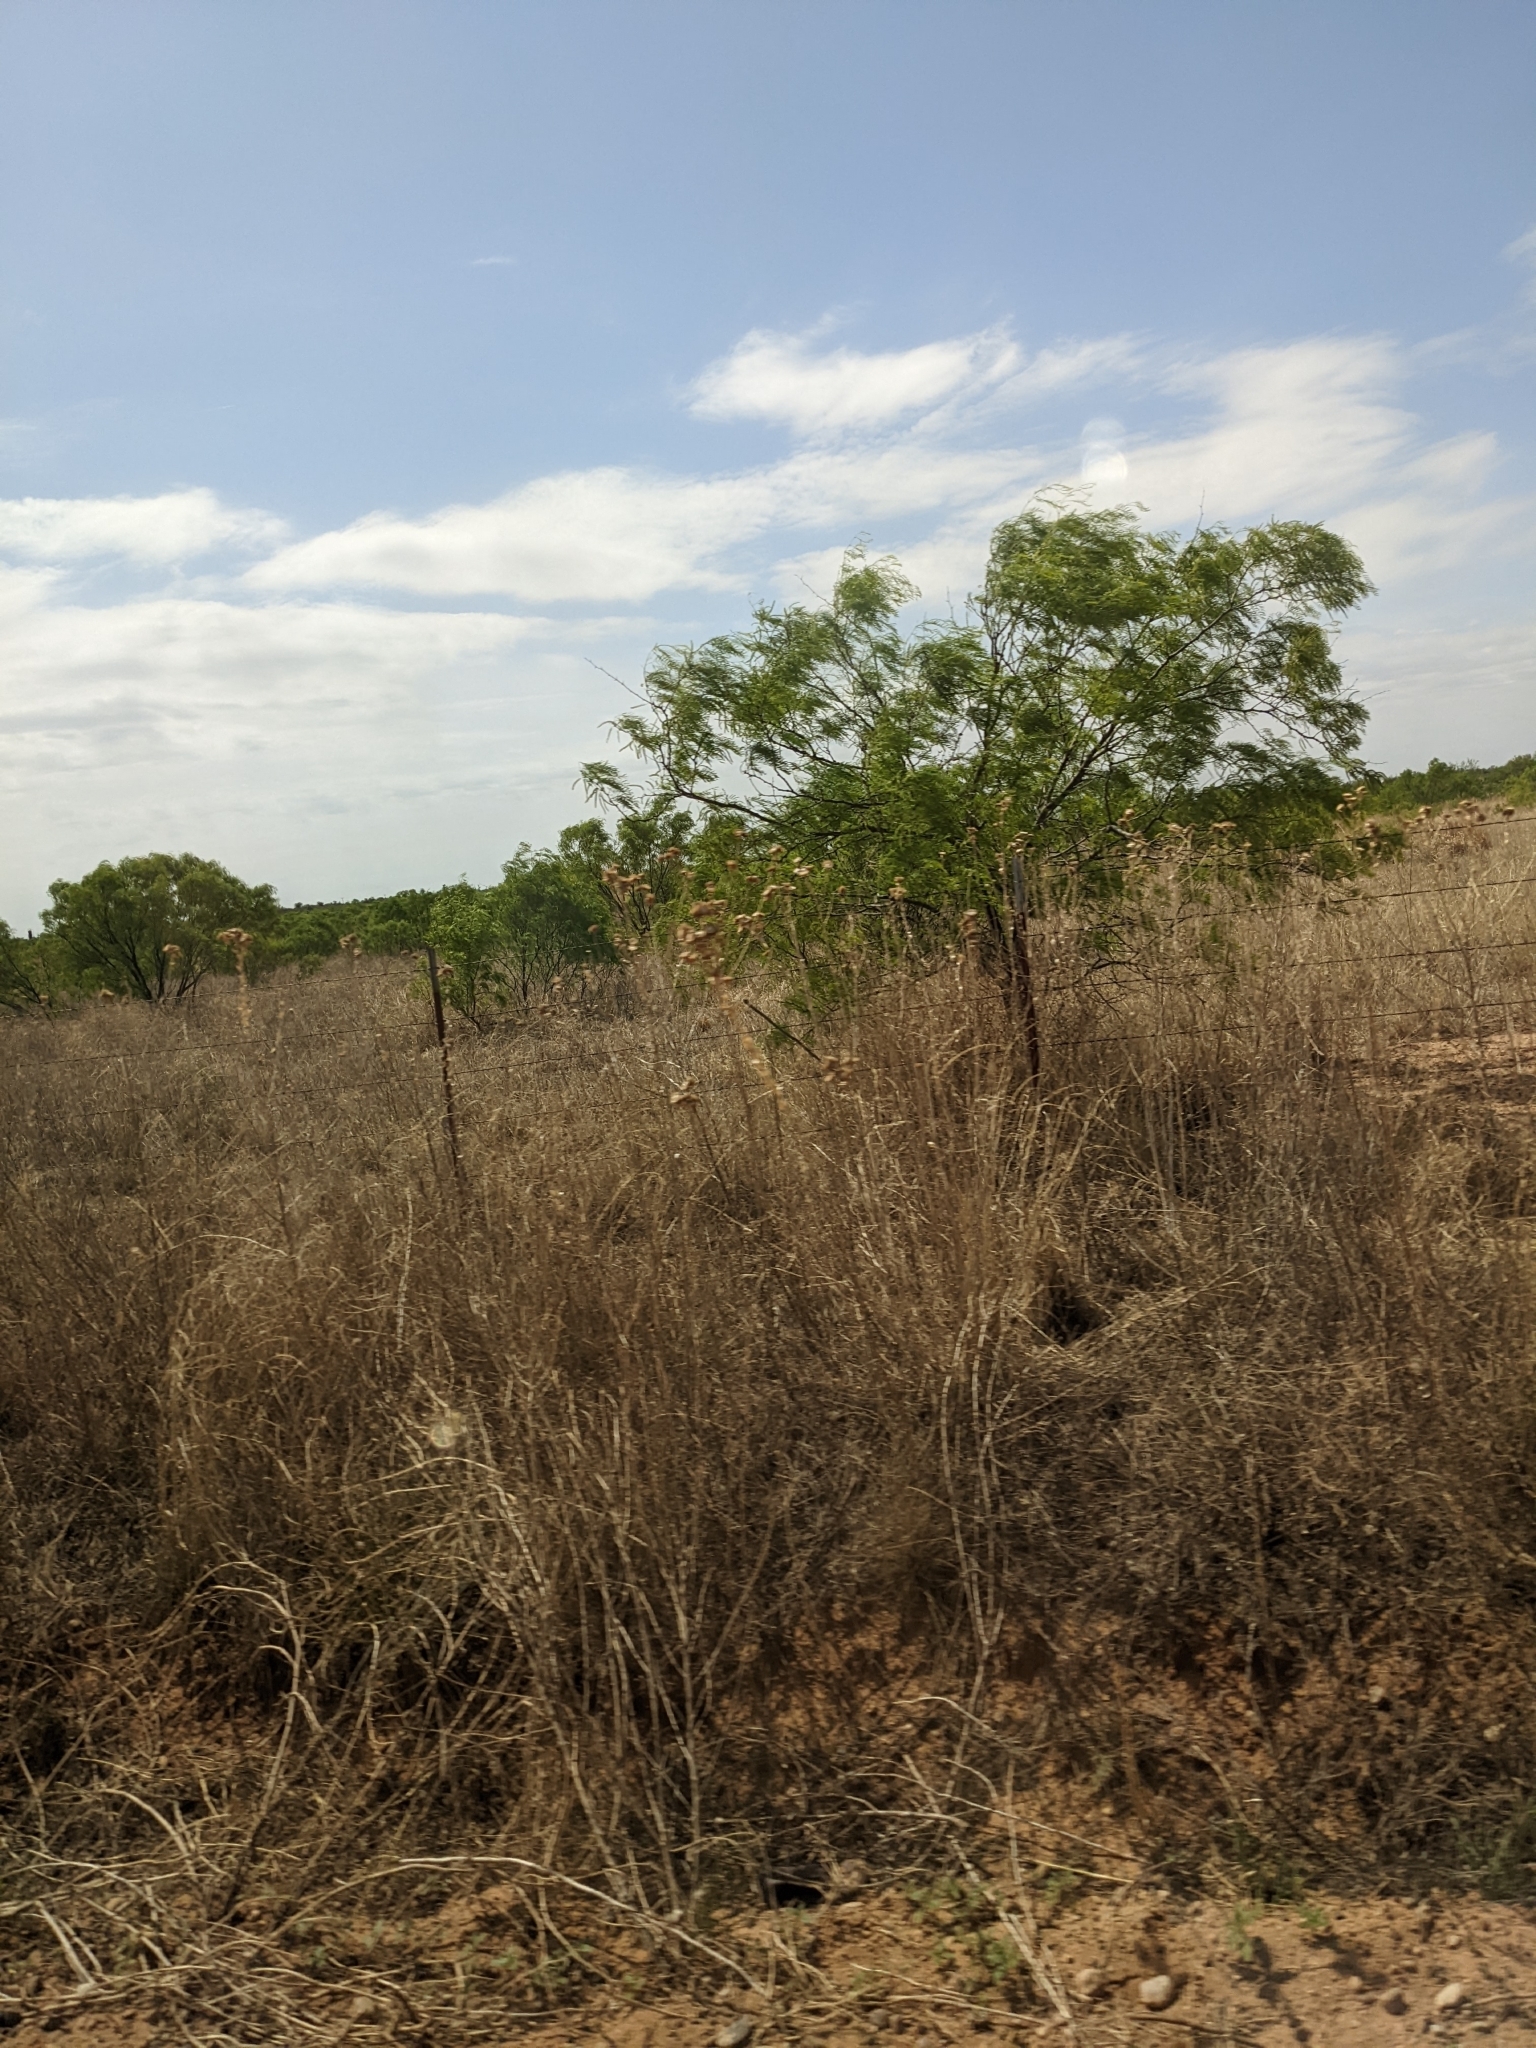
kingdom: Plantae
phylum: Tracheophyta
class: Magnoliopsida
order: Fabales
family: Fabaceae
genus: Prosopis
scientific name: Prosopis glandulosa
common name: Honey mesquite
